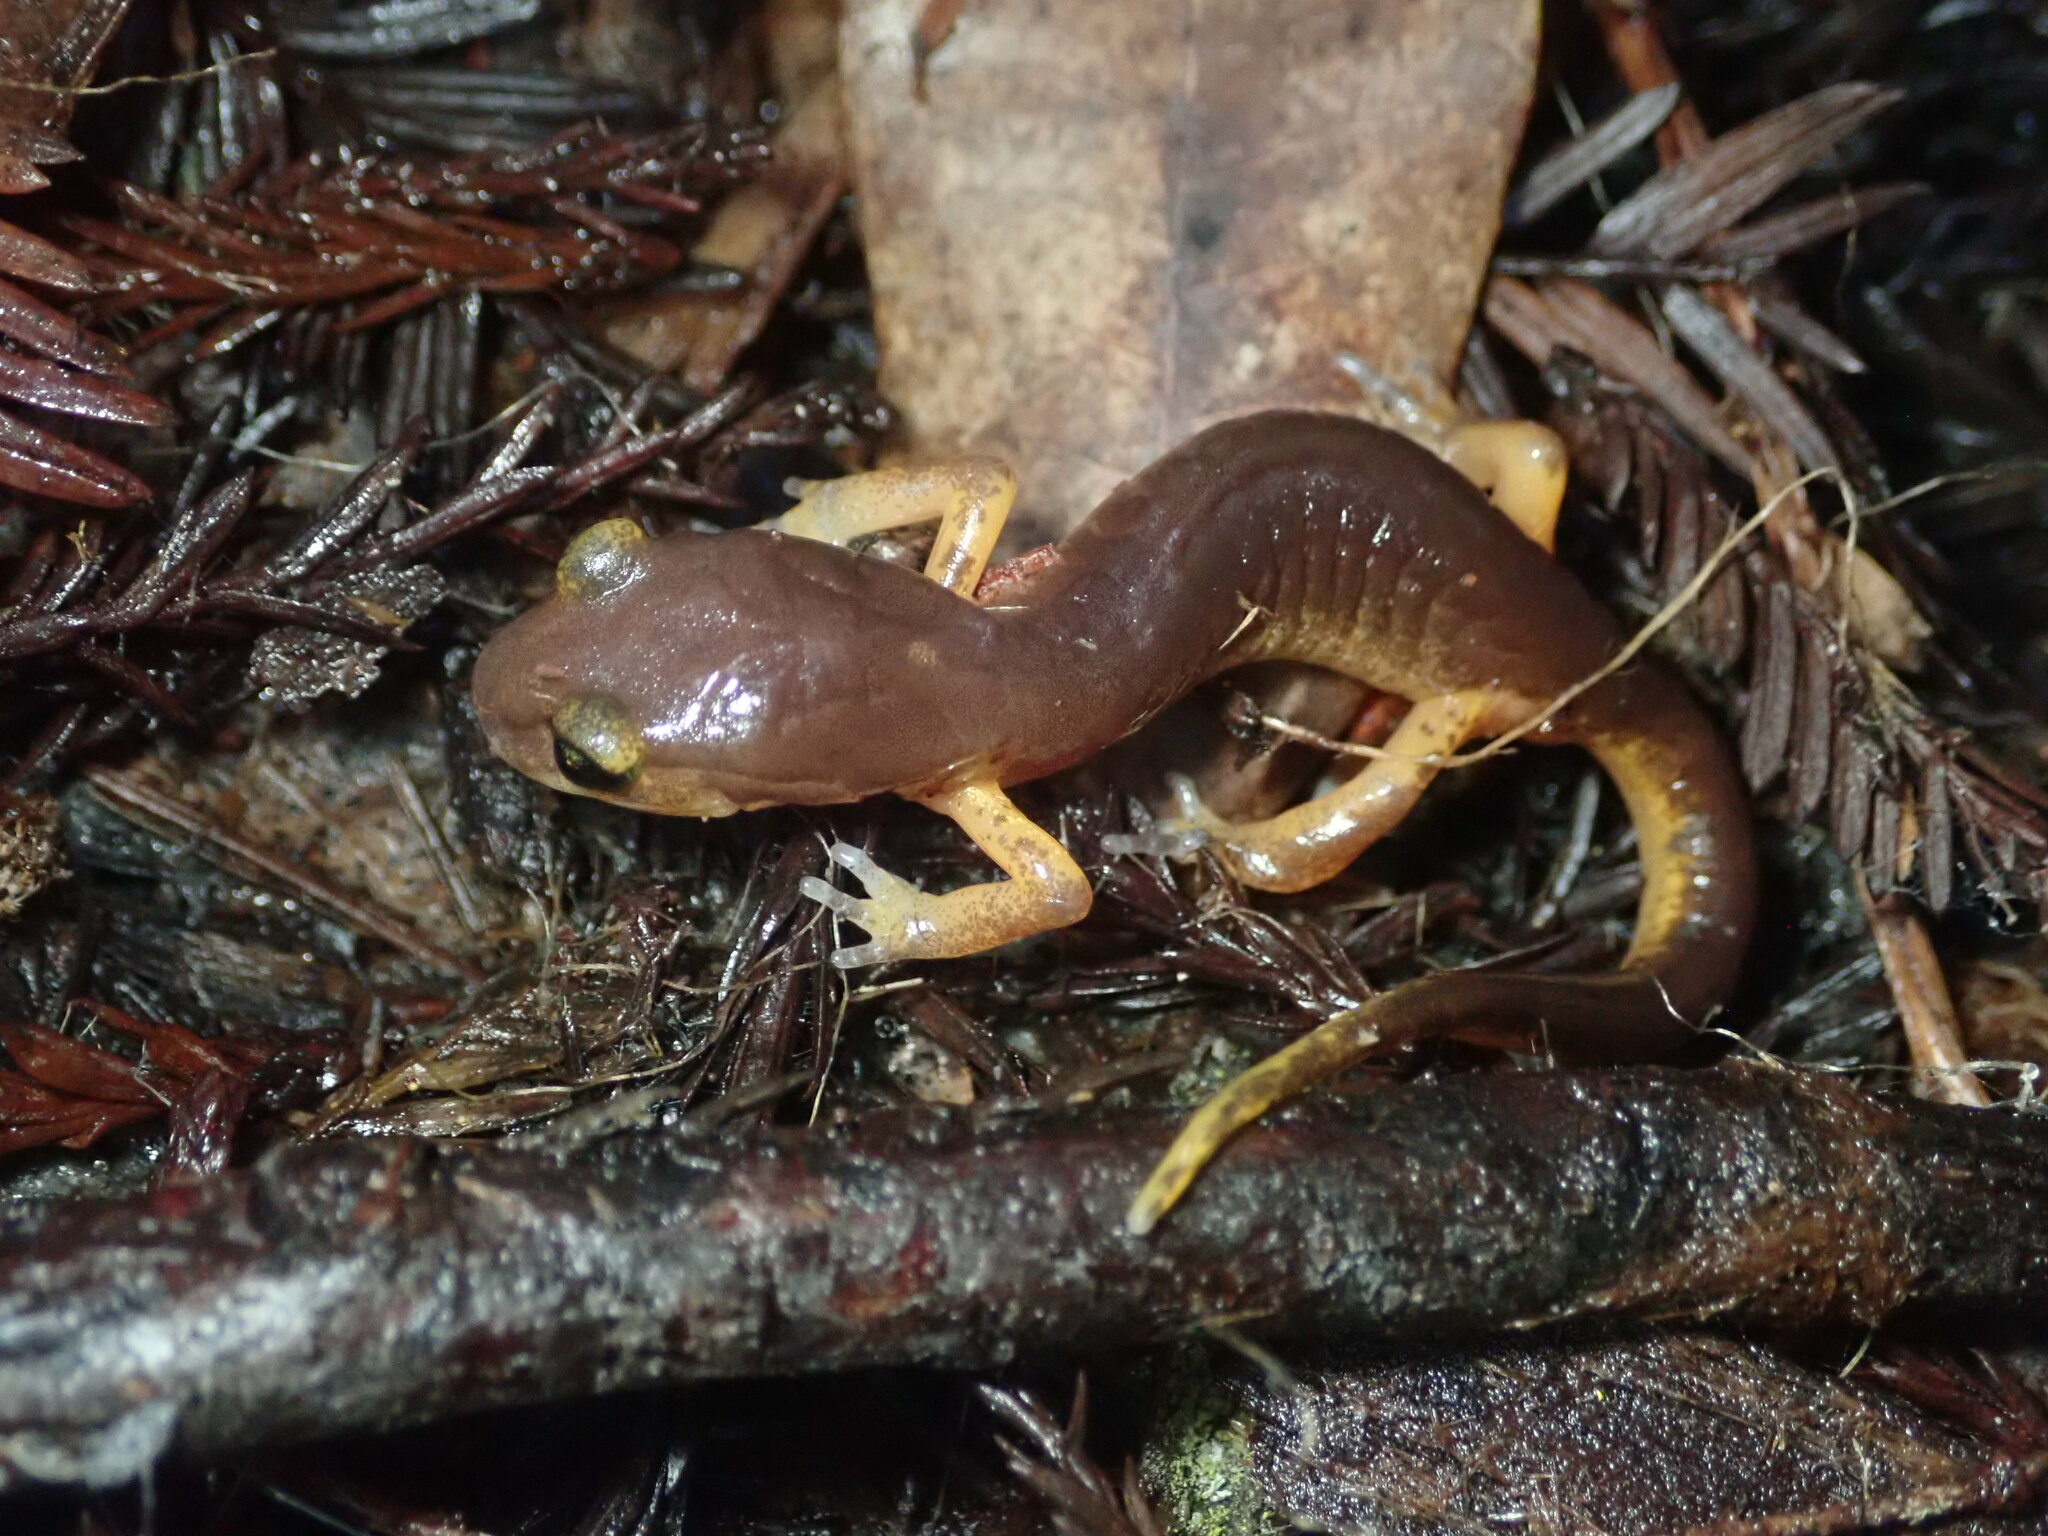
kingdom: Animalia
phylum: Chordata
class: Amphibia
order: Caudata
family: Plethodontidae
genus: Ensatina
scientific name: Ensatina eschscholtzii
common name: Ensatina
